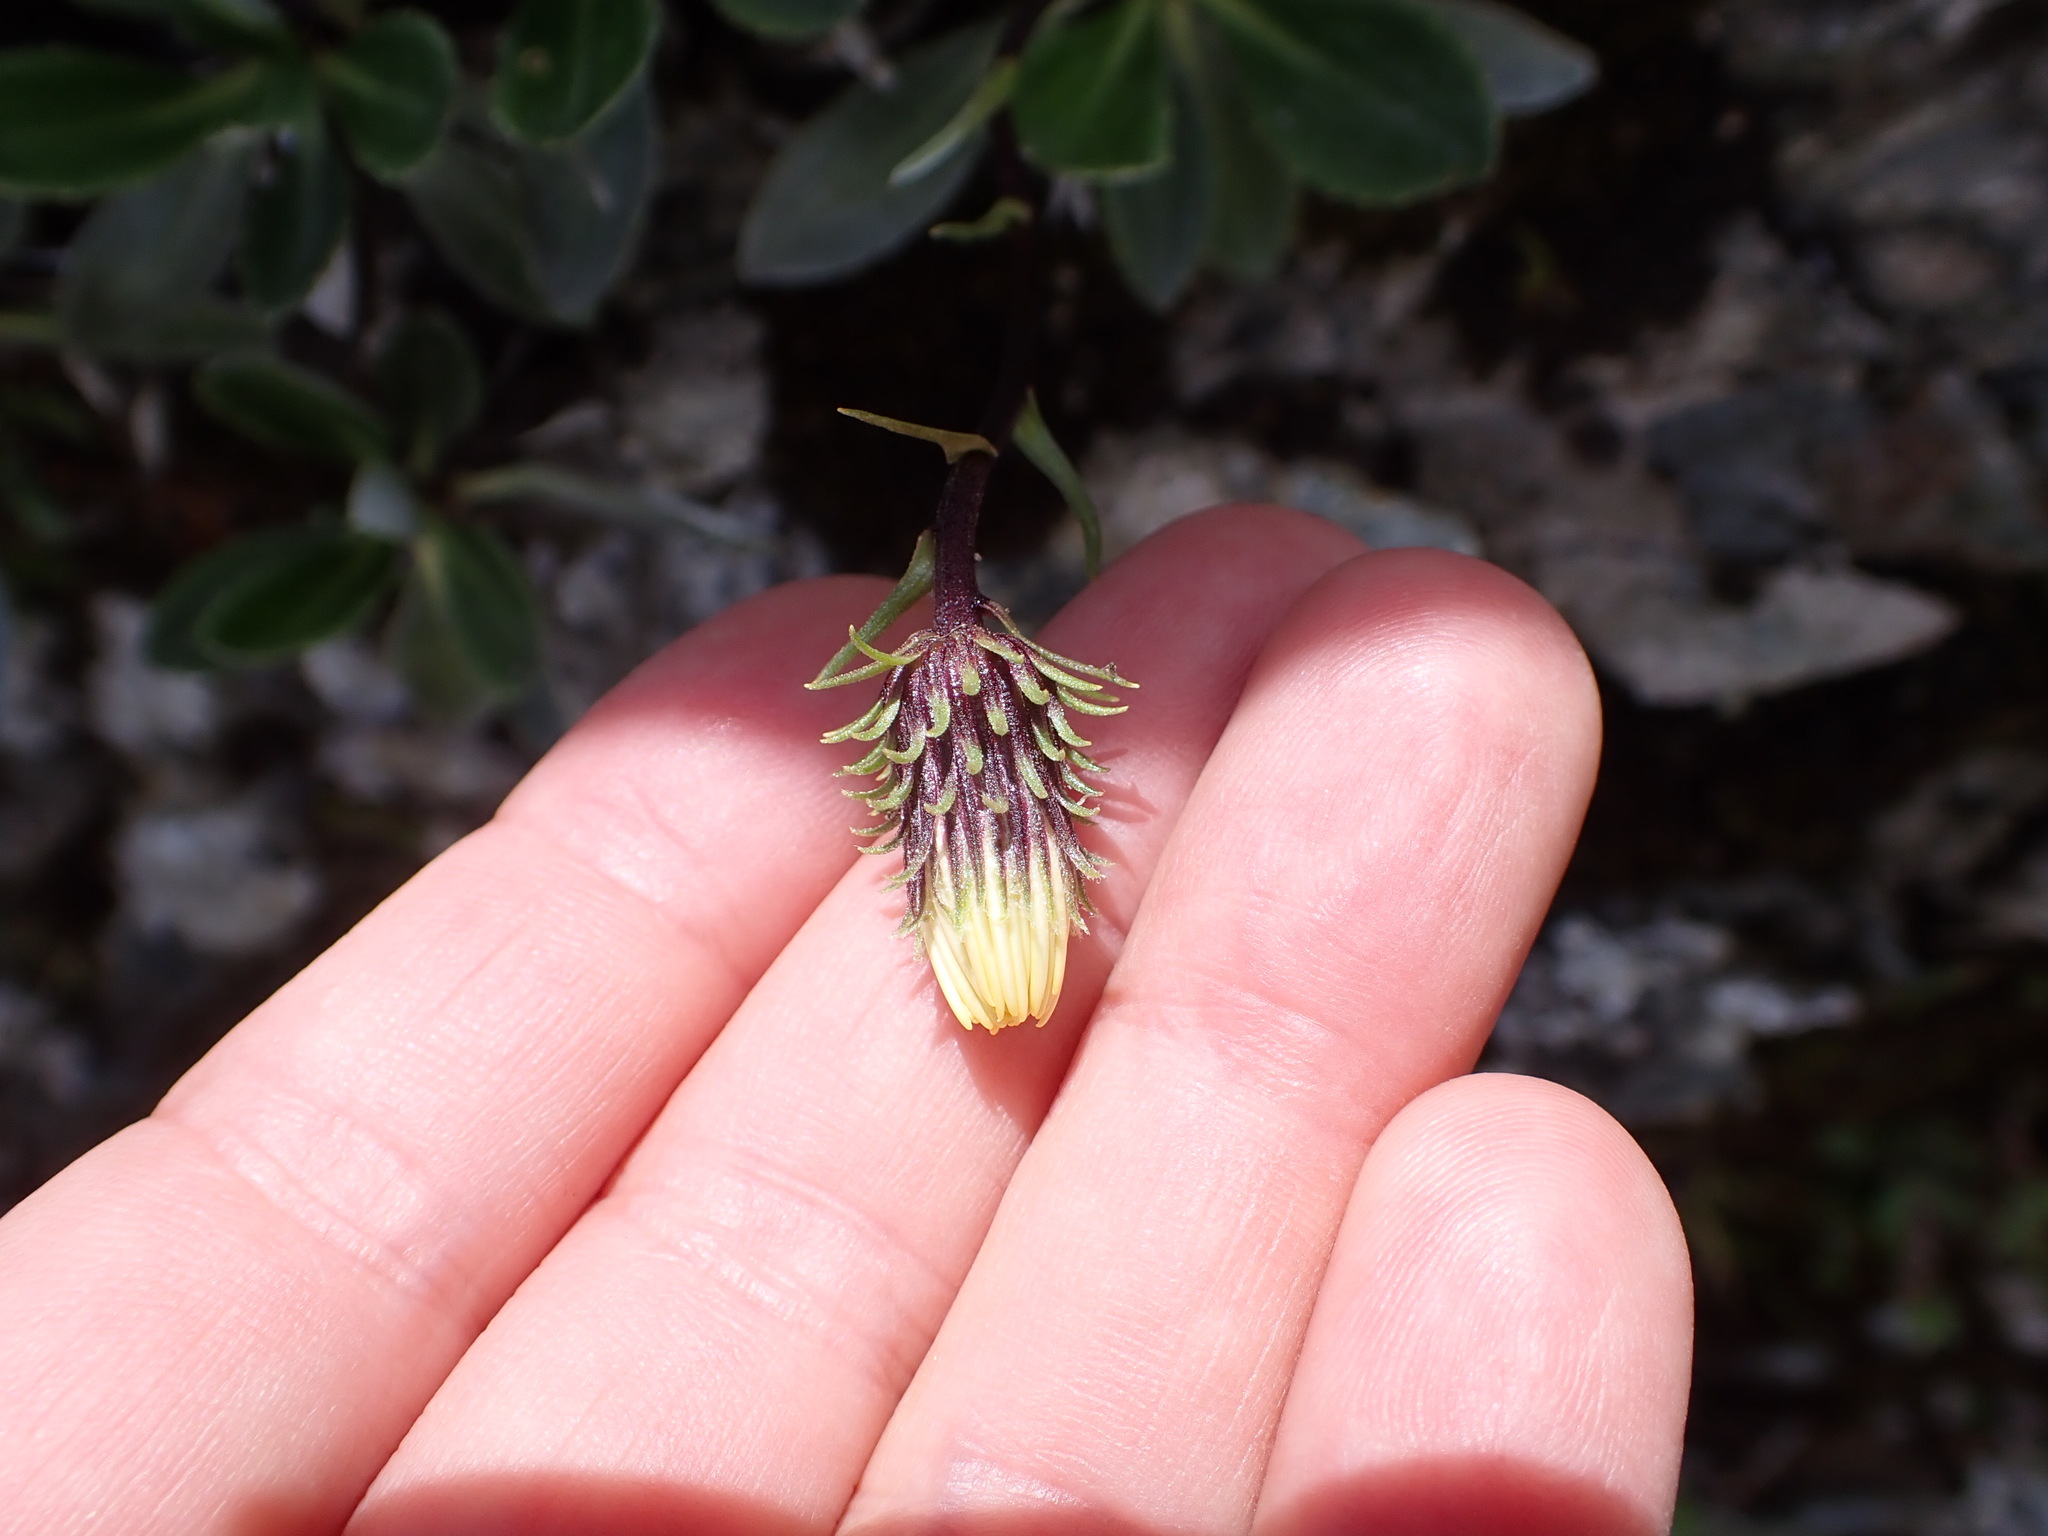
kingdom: Plantae
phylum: Tracheophyta
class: Magnoliopsida
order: Asterales
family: Asteraceae
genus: Celmisia
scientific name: Celmisia durietzii
